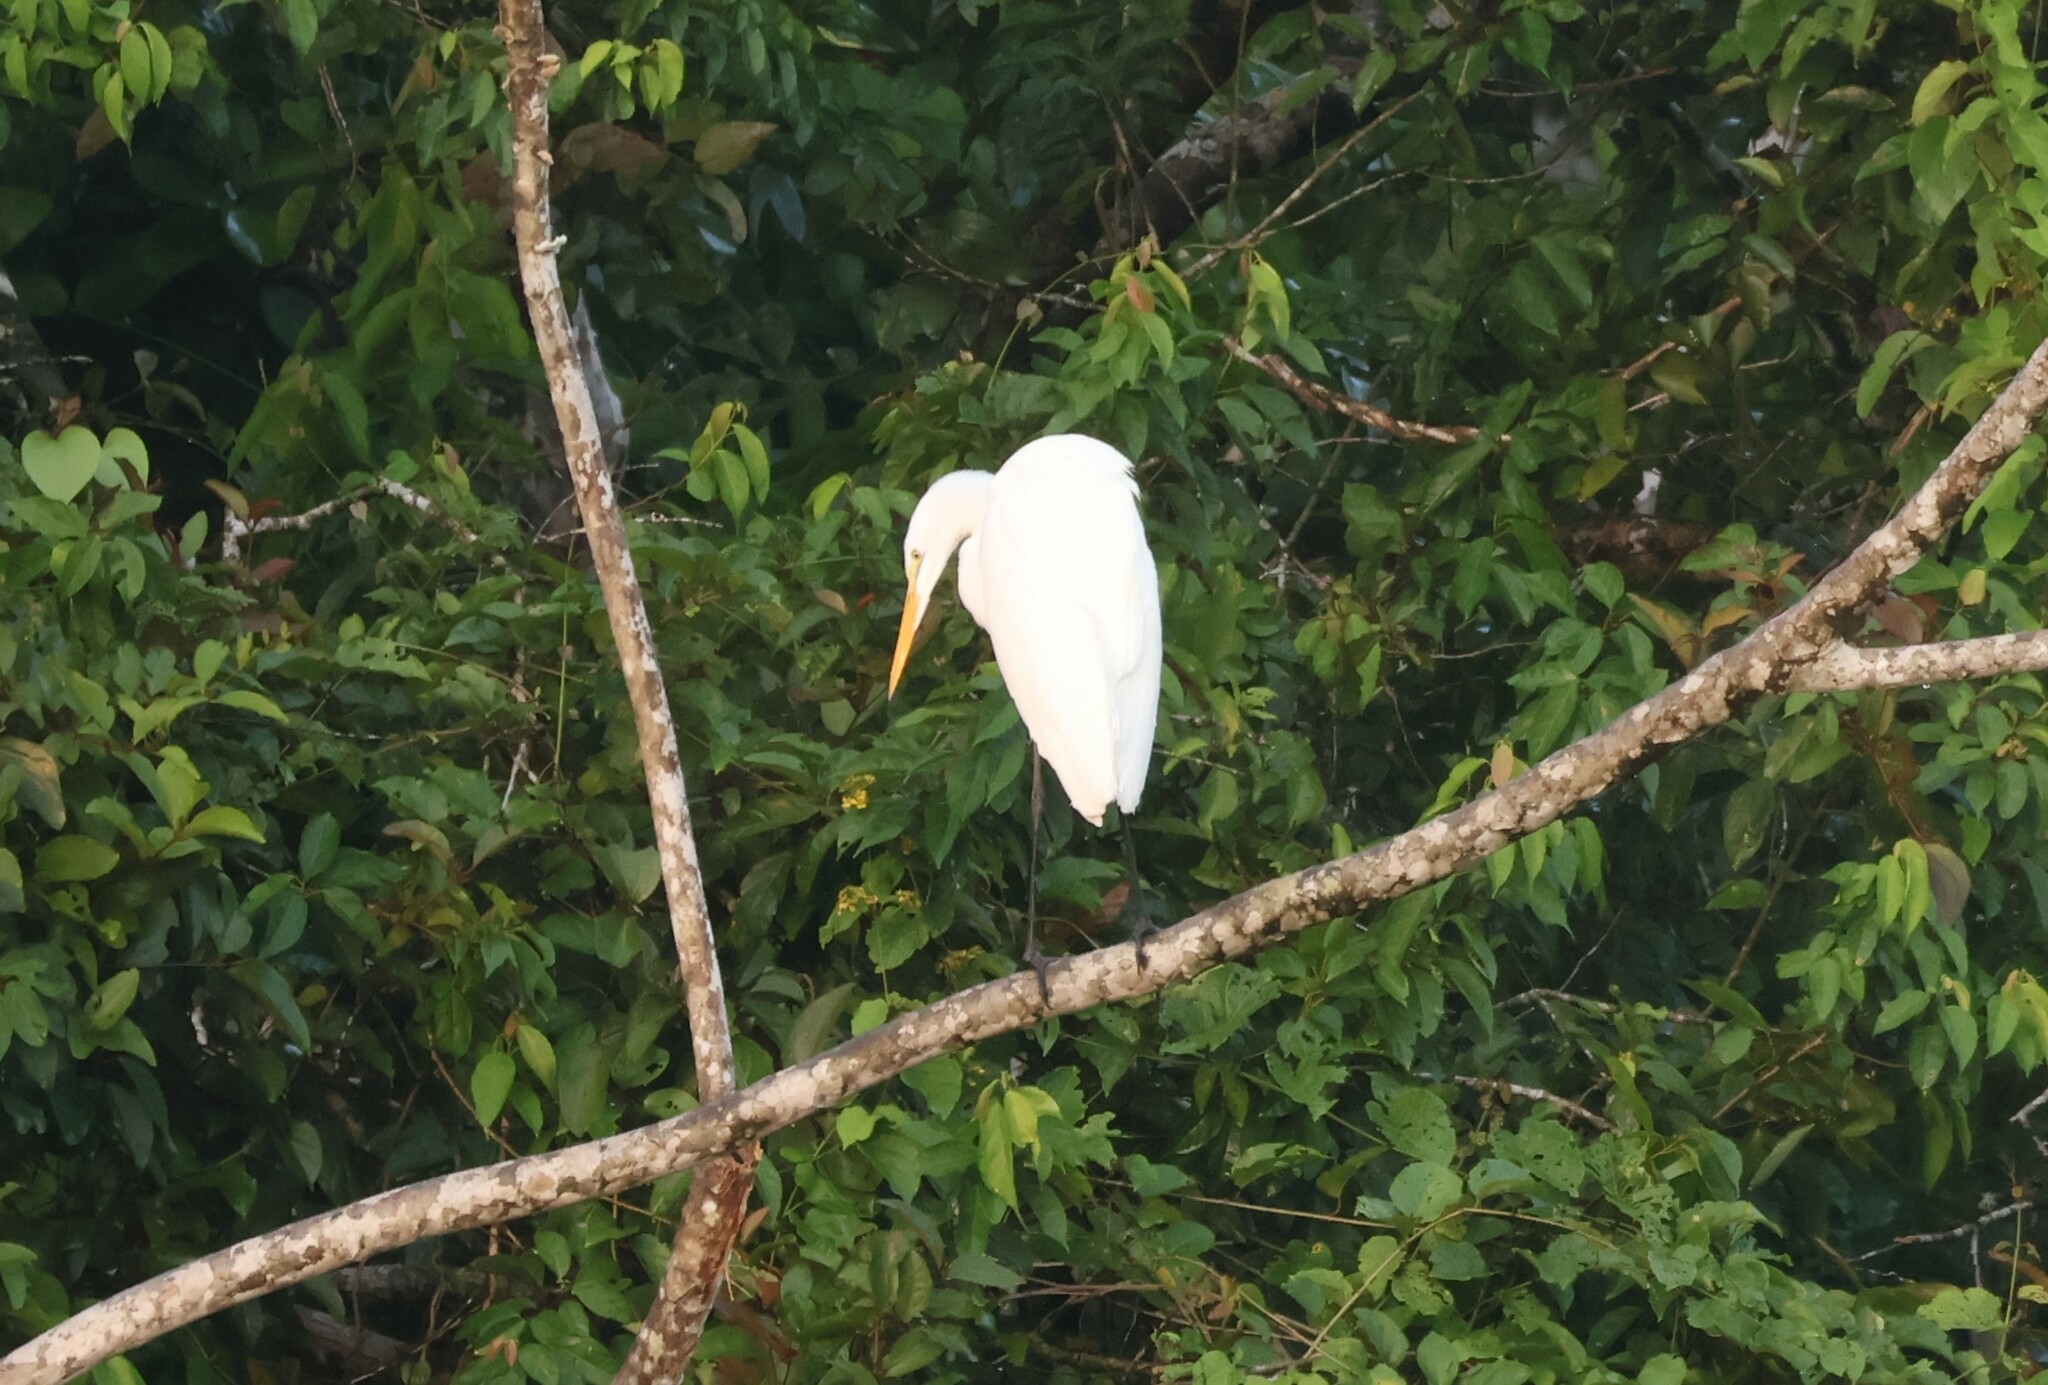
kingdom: Animalia
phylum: Chordata
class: Aves
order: Pelecaniformes
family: Ardeidae
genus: Ardea
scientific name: Ardea alba
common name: Great egret
